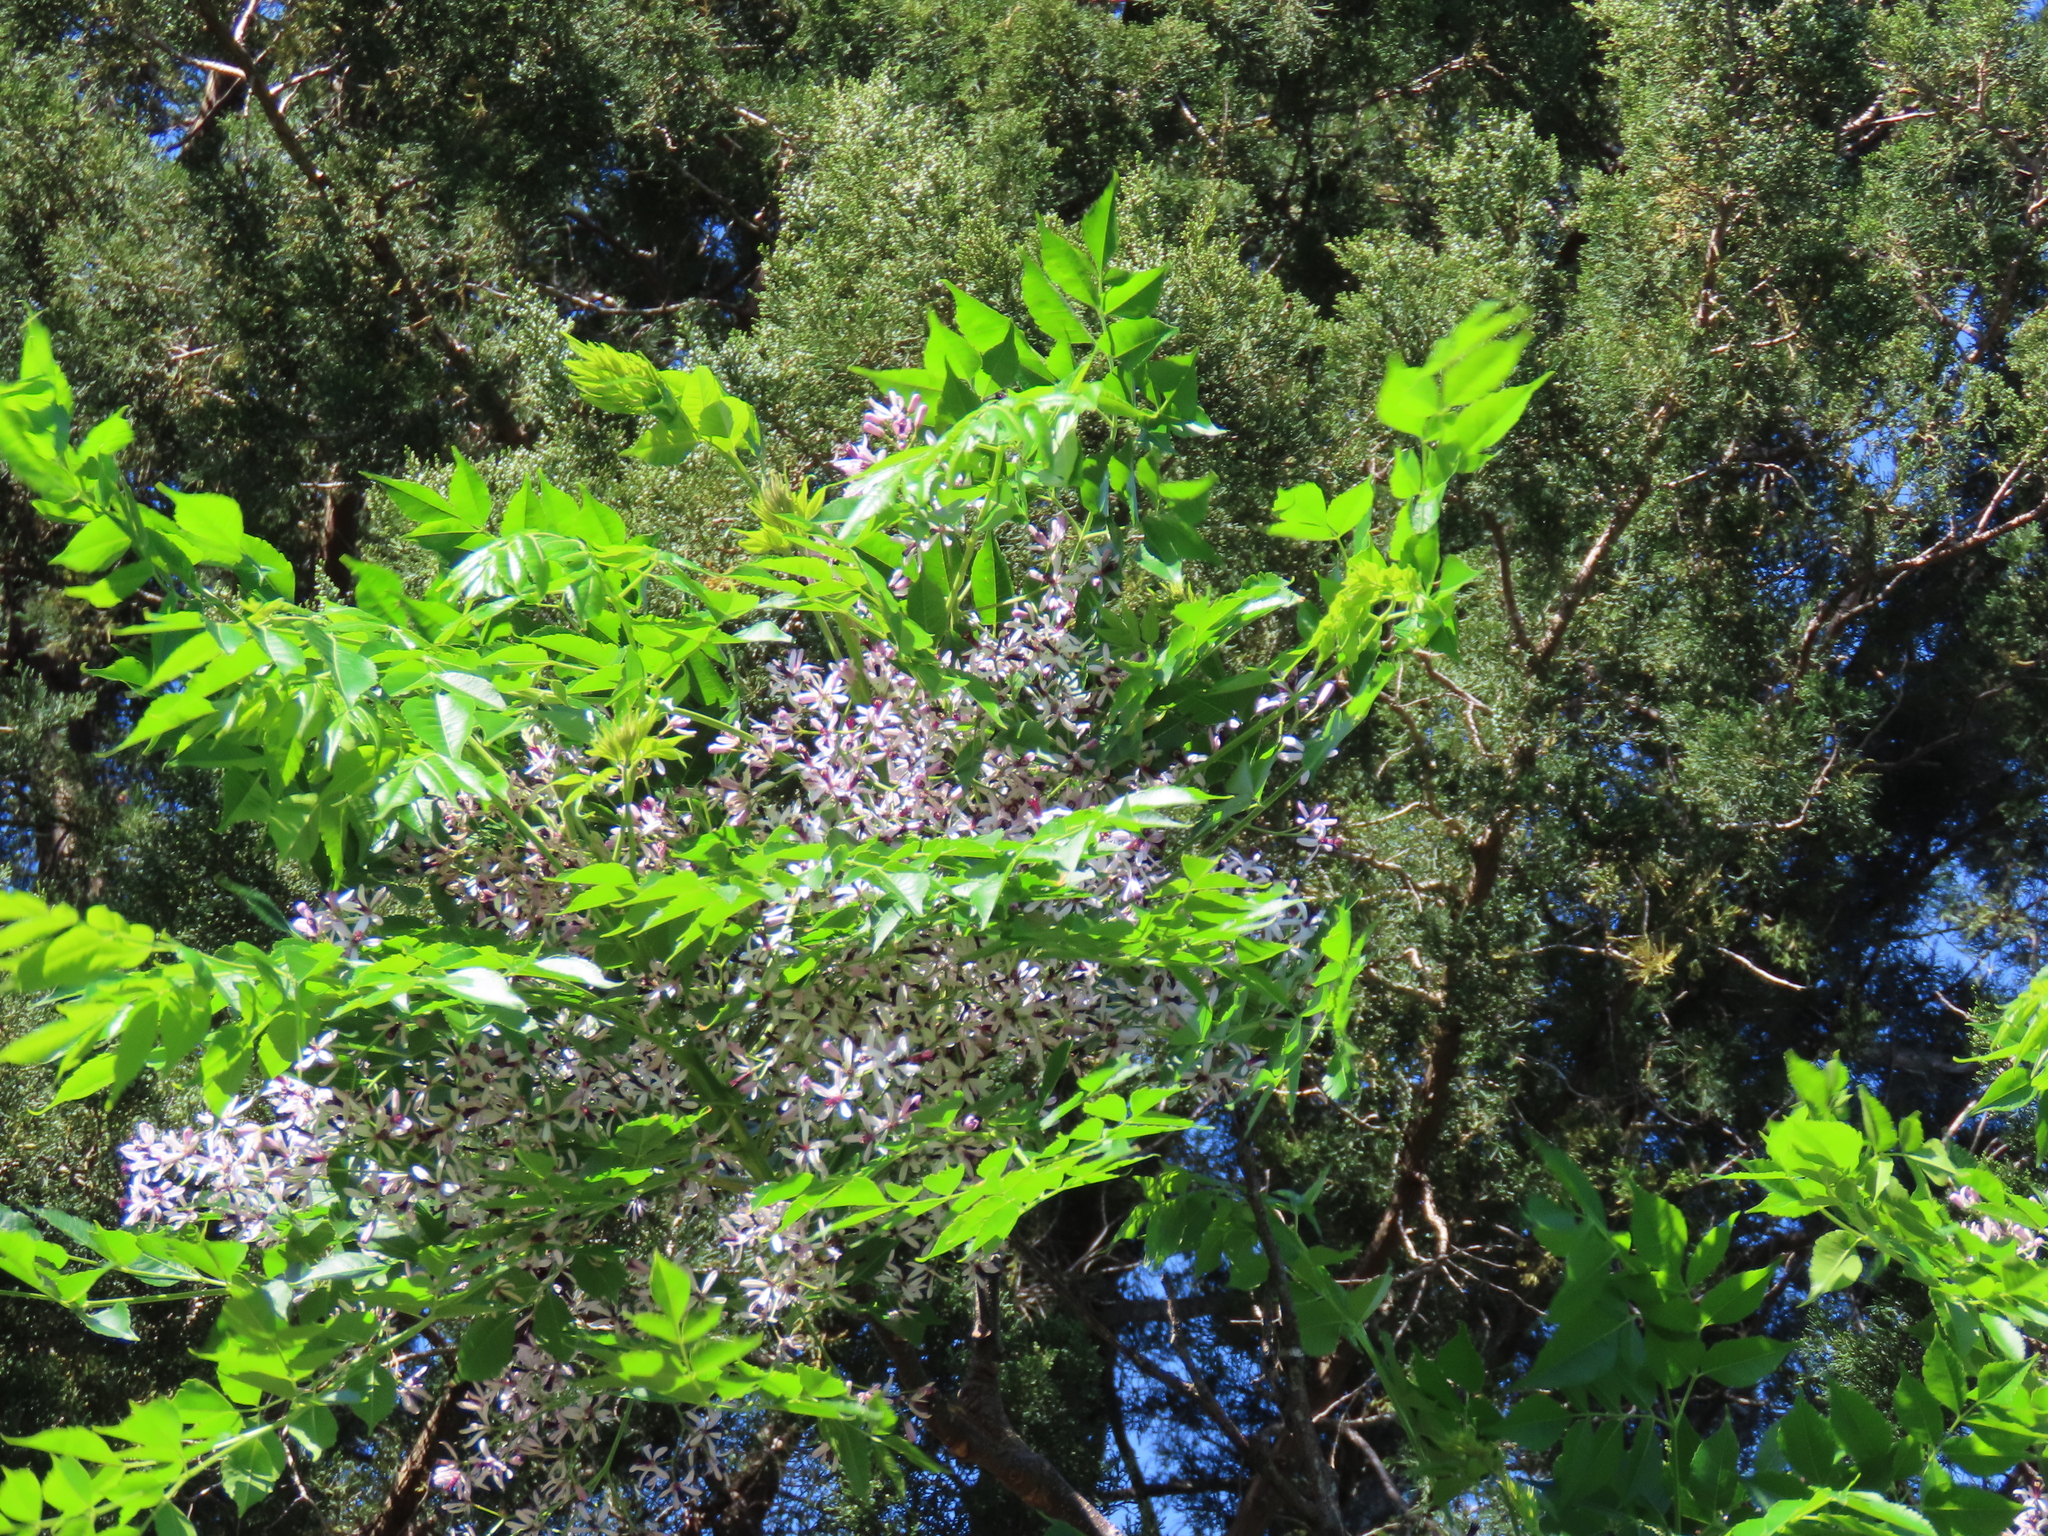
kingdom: Plantae
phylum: Tracheophyta
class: Magnoliopsida
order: Sapindales
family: Meliaceae
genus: Melia
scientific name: Melia azedarach
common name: Chinaberrytree
